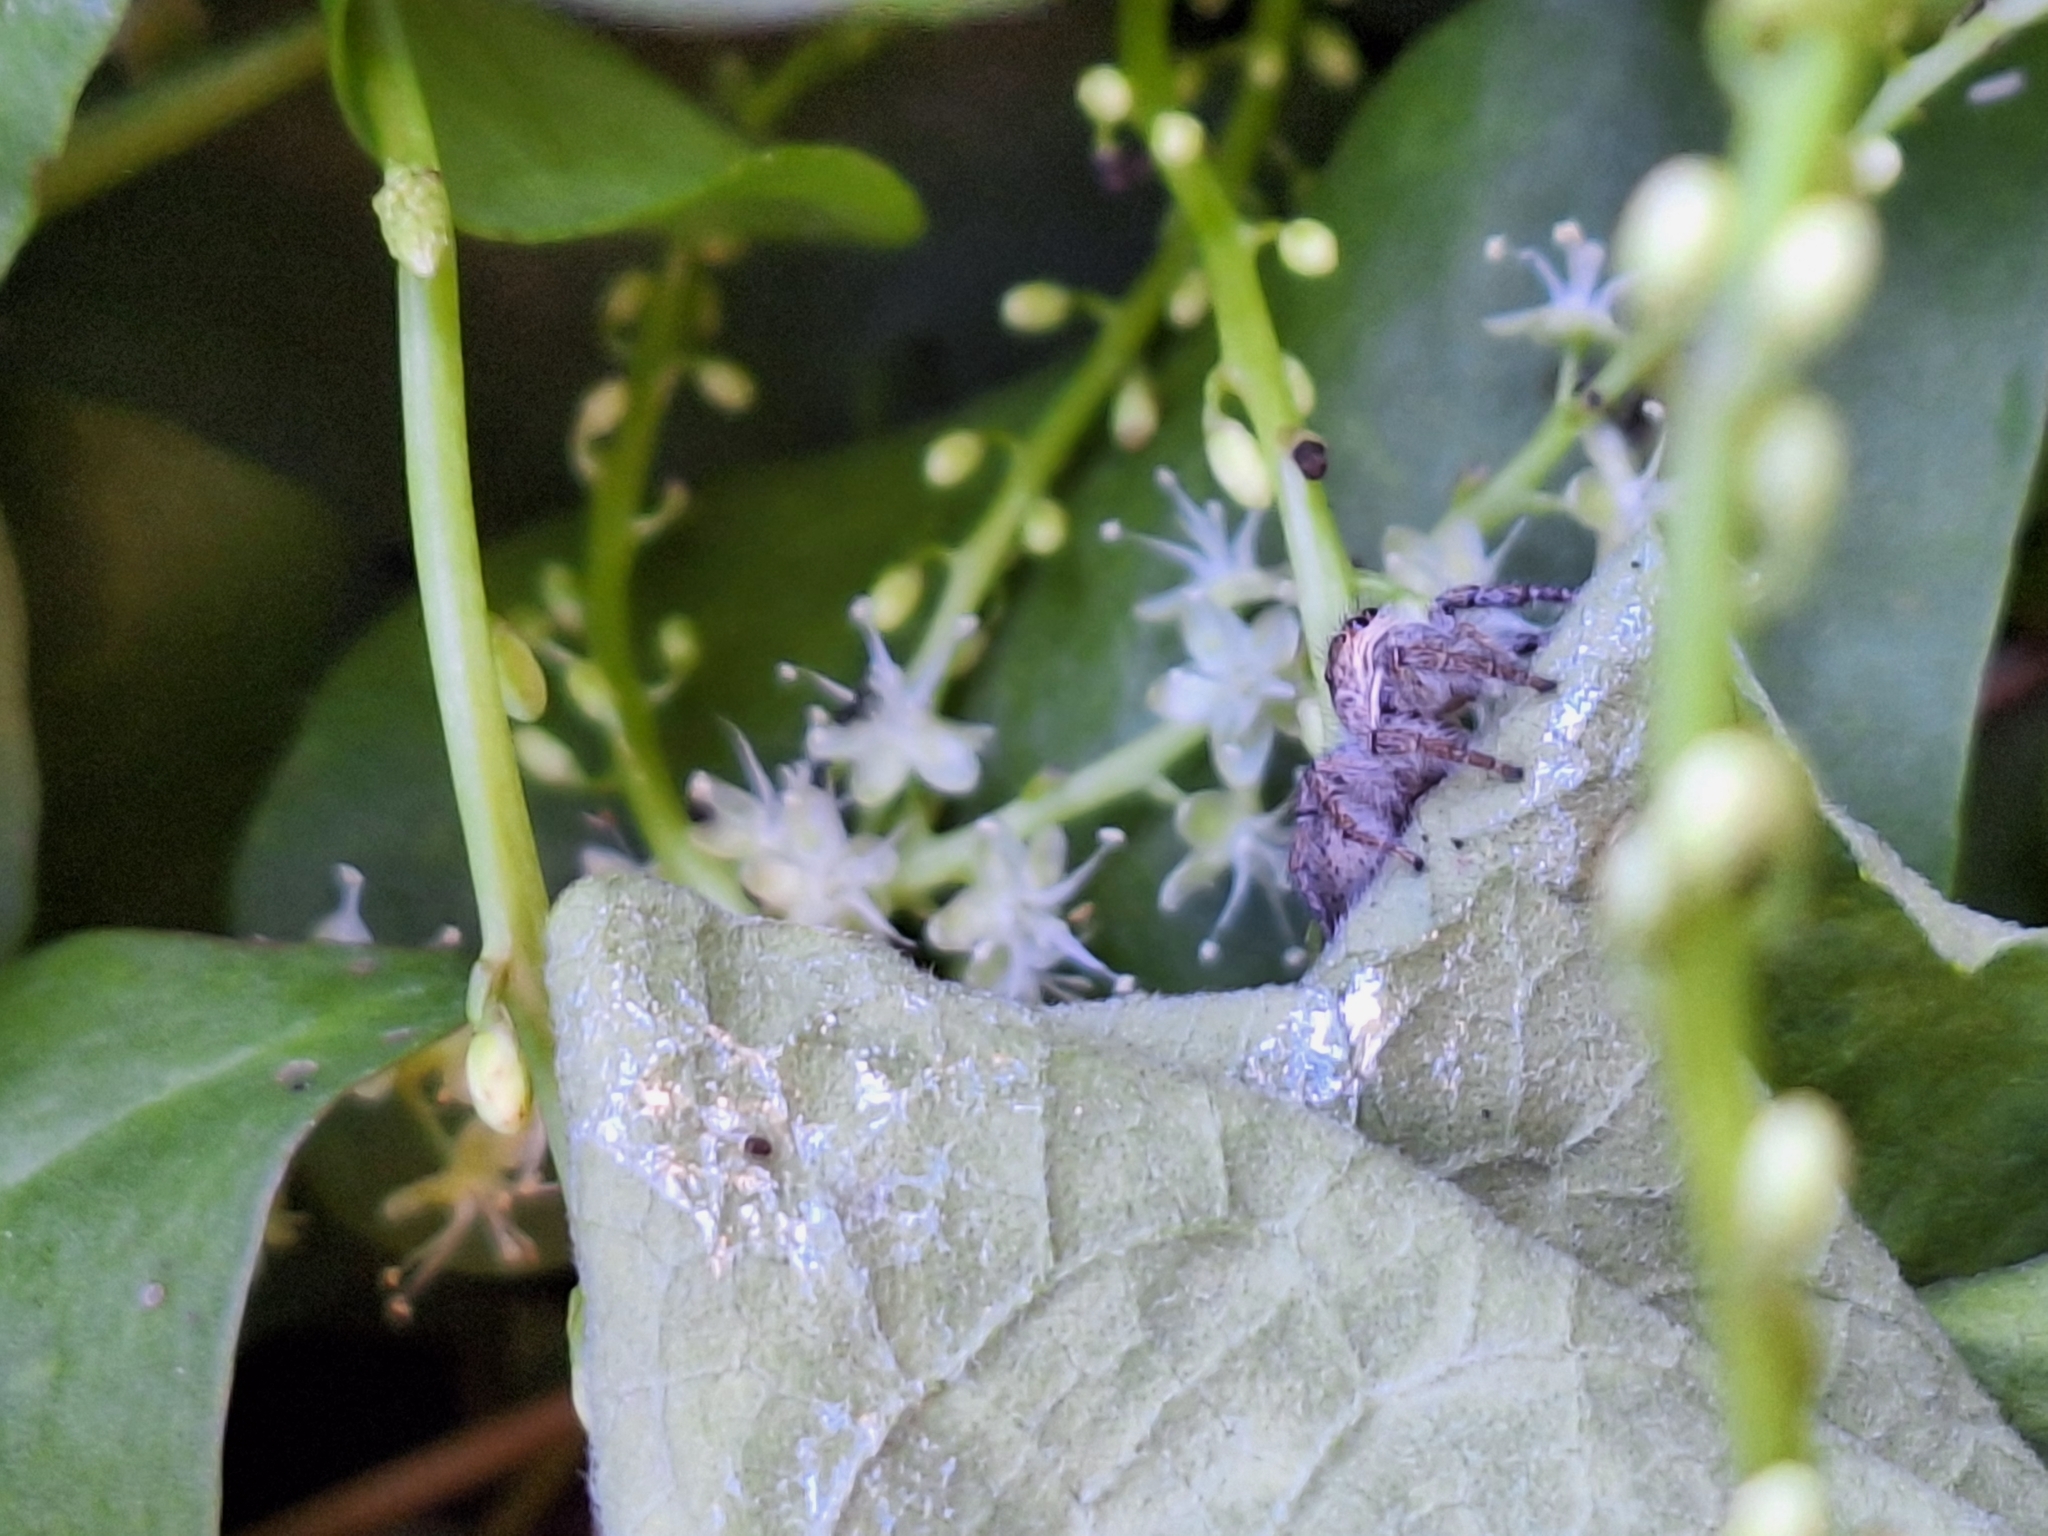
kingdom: Animalia
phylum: Arthropoda
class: Arachnida
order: Araneae
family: Salticidae
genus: Megafreya
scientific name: Megafreya sutrix
